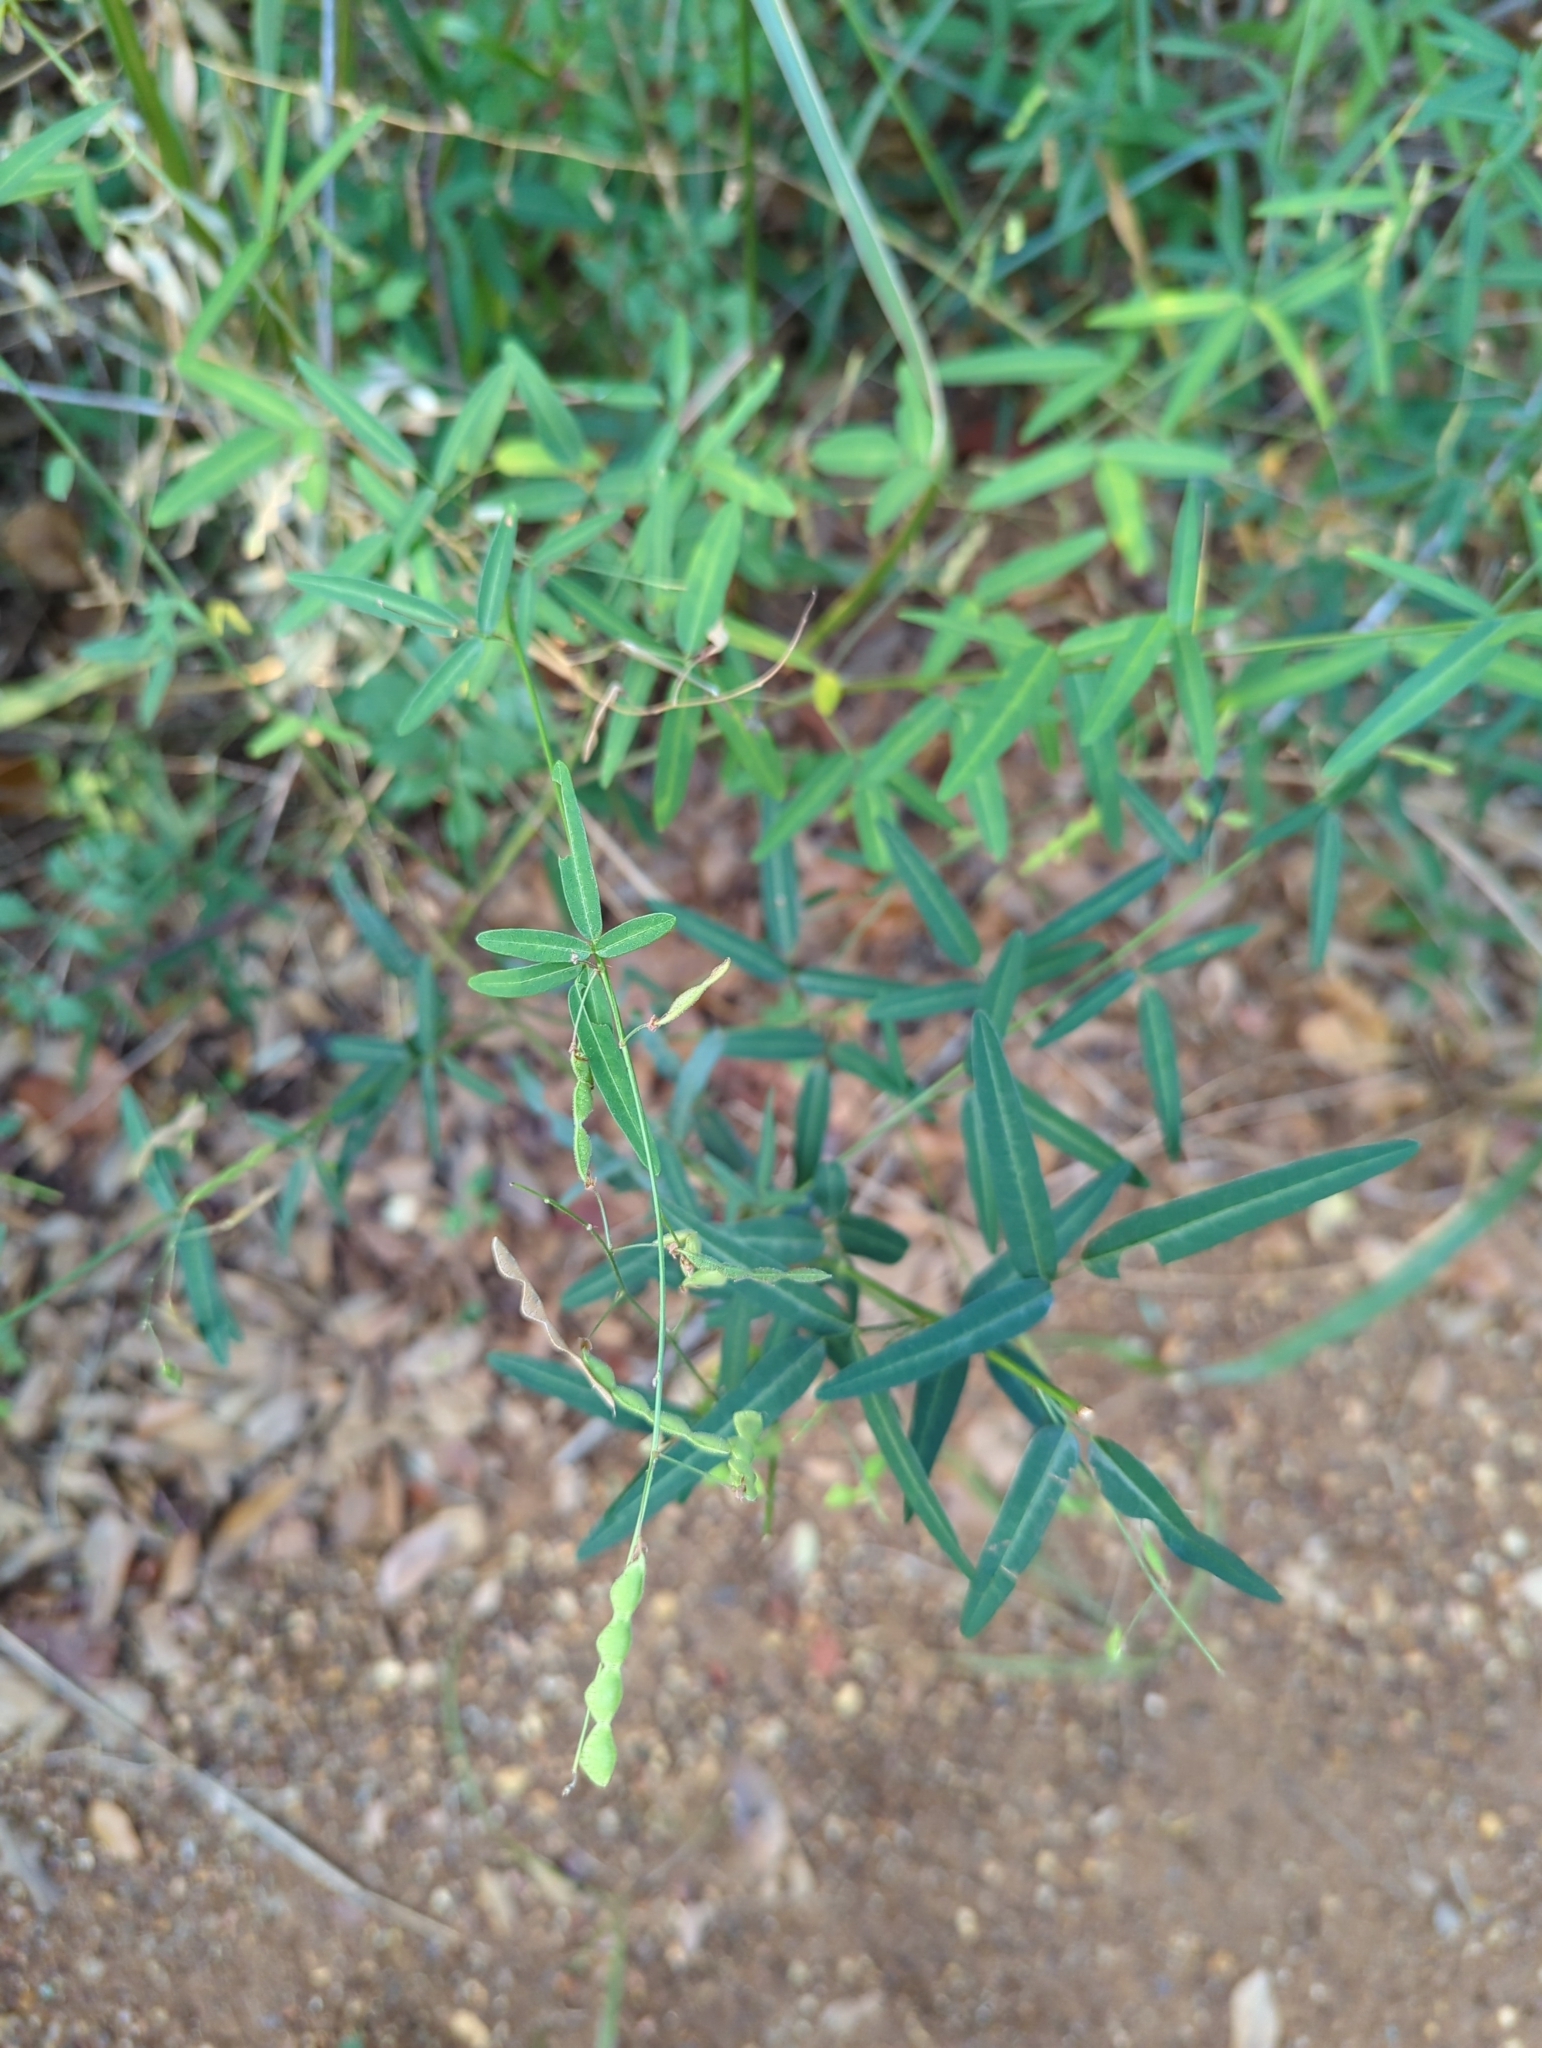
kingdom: Plantae
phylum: Tracheophyta
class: Magnoliopsida
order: Fabales
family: Fabaceae
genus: Desmodium
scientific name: Desmodium paniculatum
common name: Panicled tick-clover
